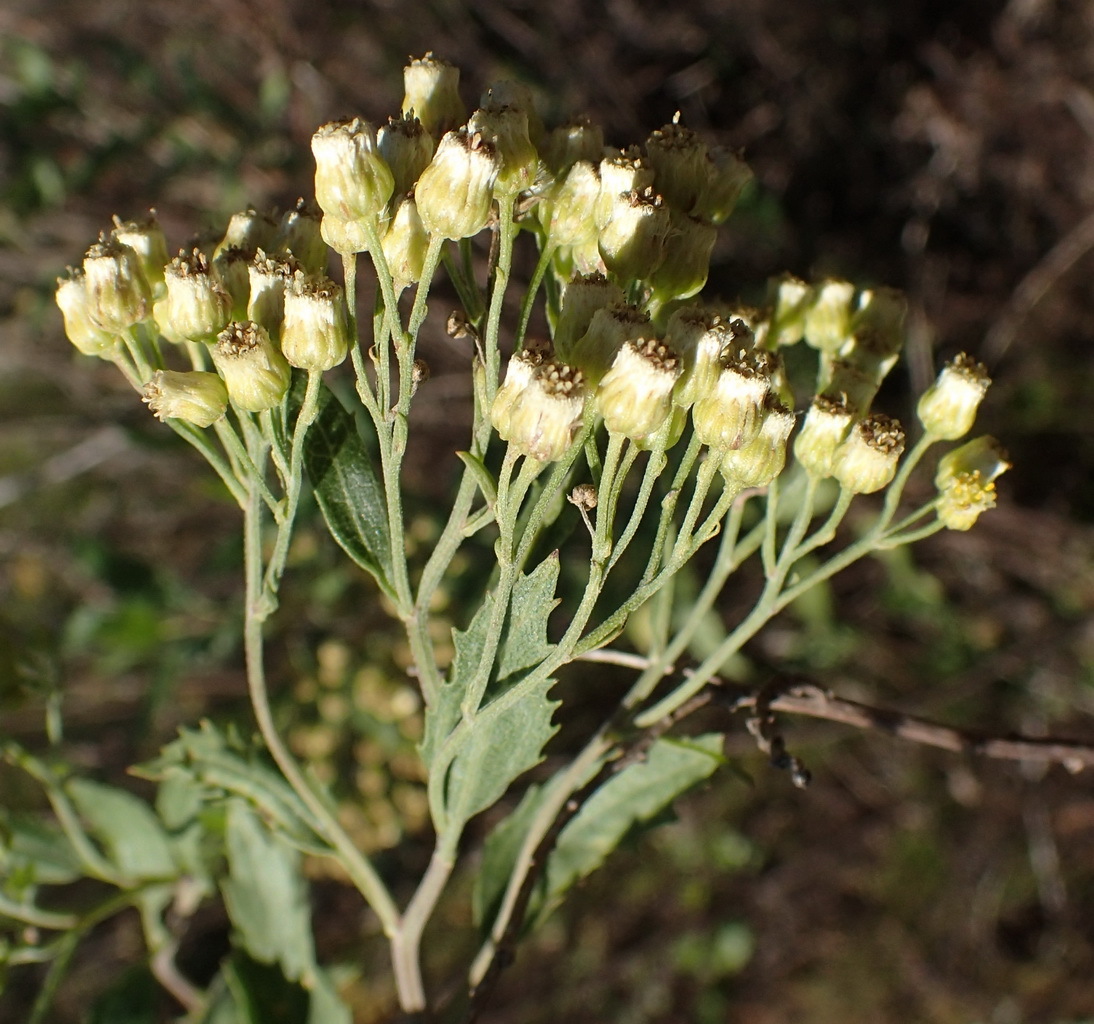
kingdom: Plantae
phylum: Tracheophyta
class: Magnoliopsida
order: Asterales
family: Asteraceae
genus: Nidorella
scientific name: Nidorella ivifolia
